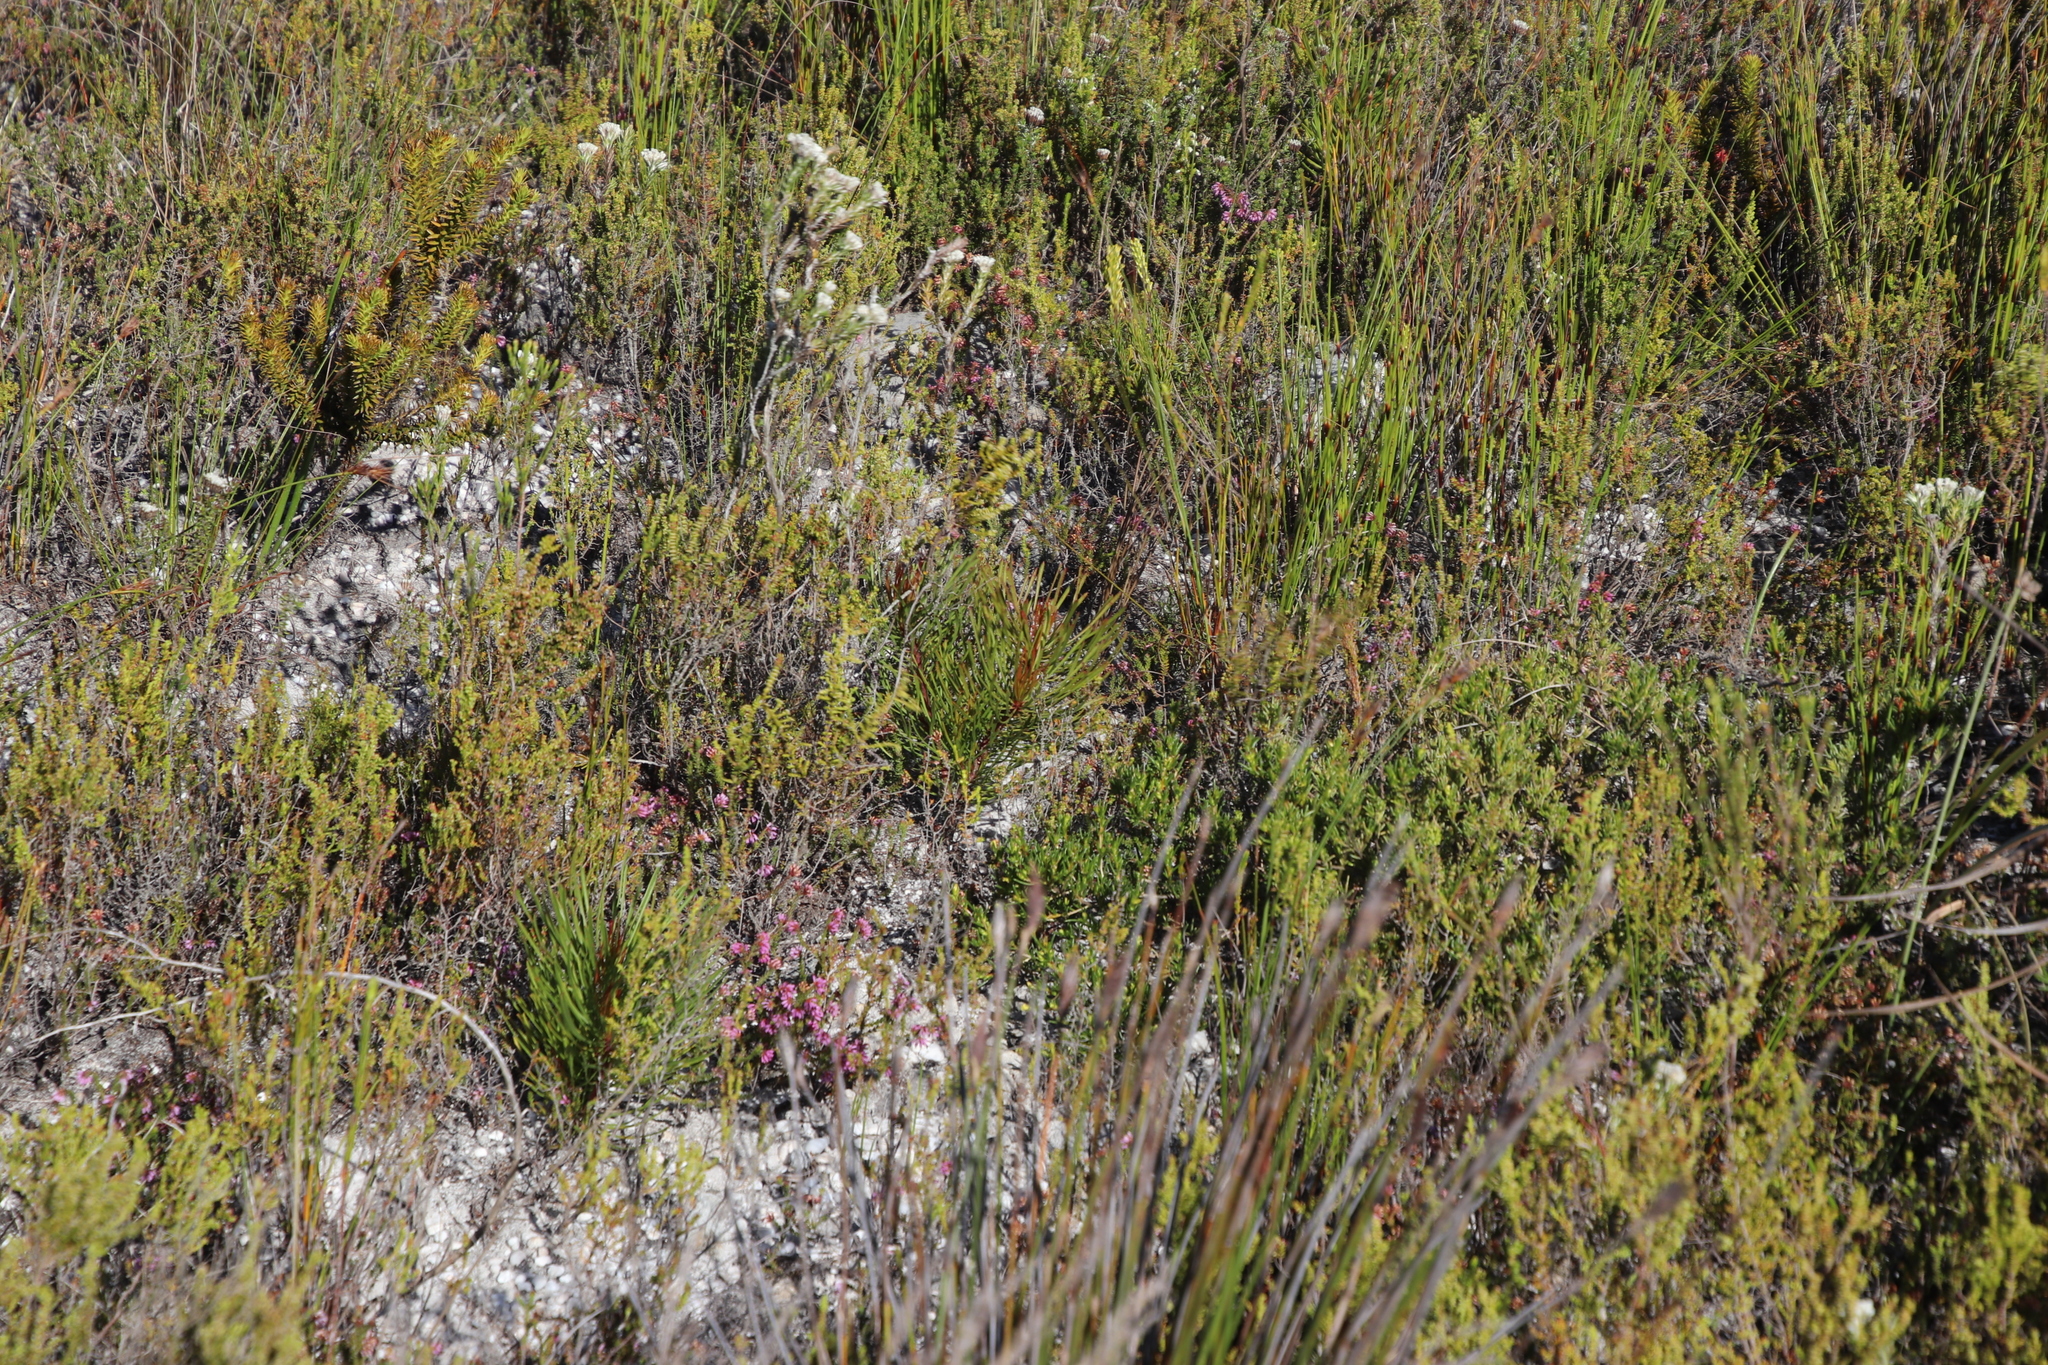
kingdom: Plantae
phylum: Tracheophyta
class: Magnoliopsida
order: Proteales
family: Proteaceae
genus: Aulax
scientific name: Aulax cancellata
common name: Channel-leaf featherbush
